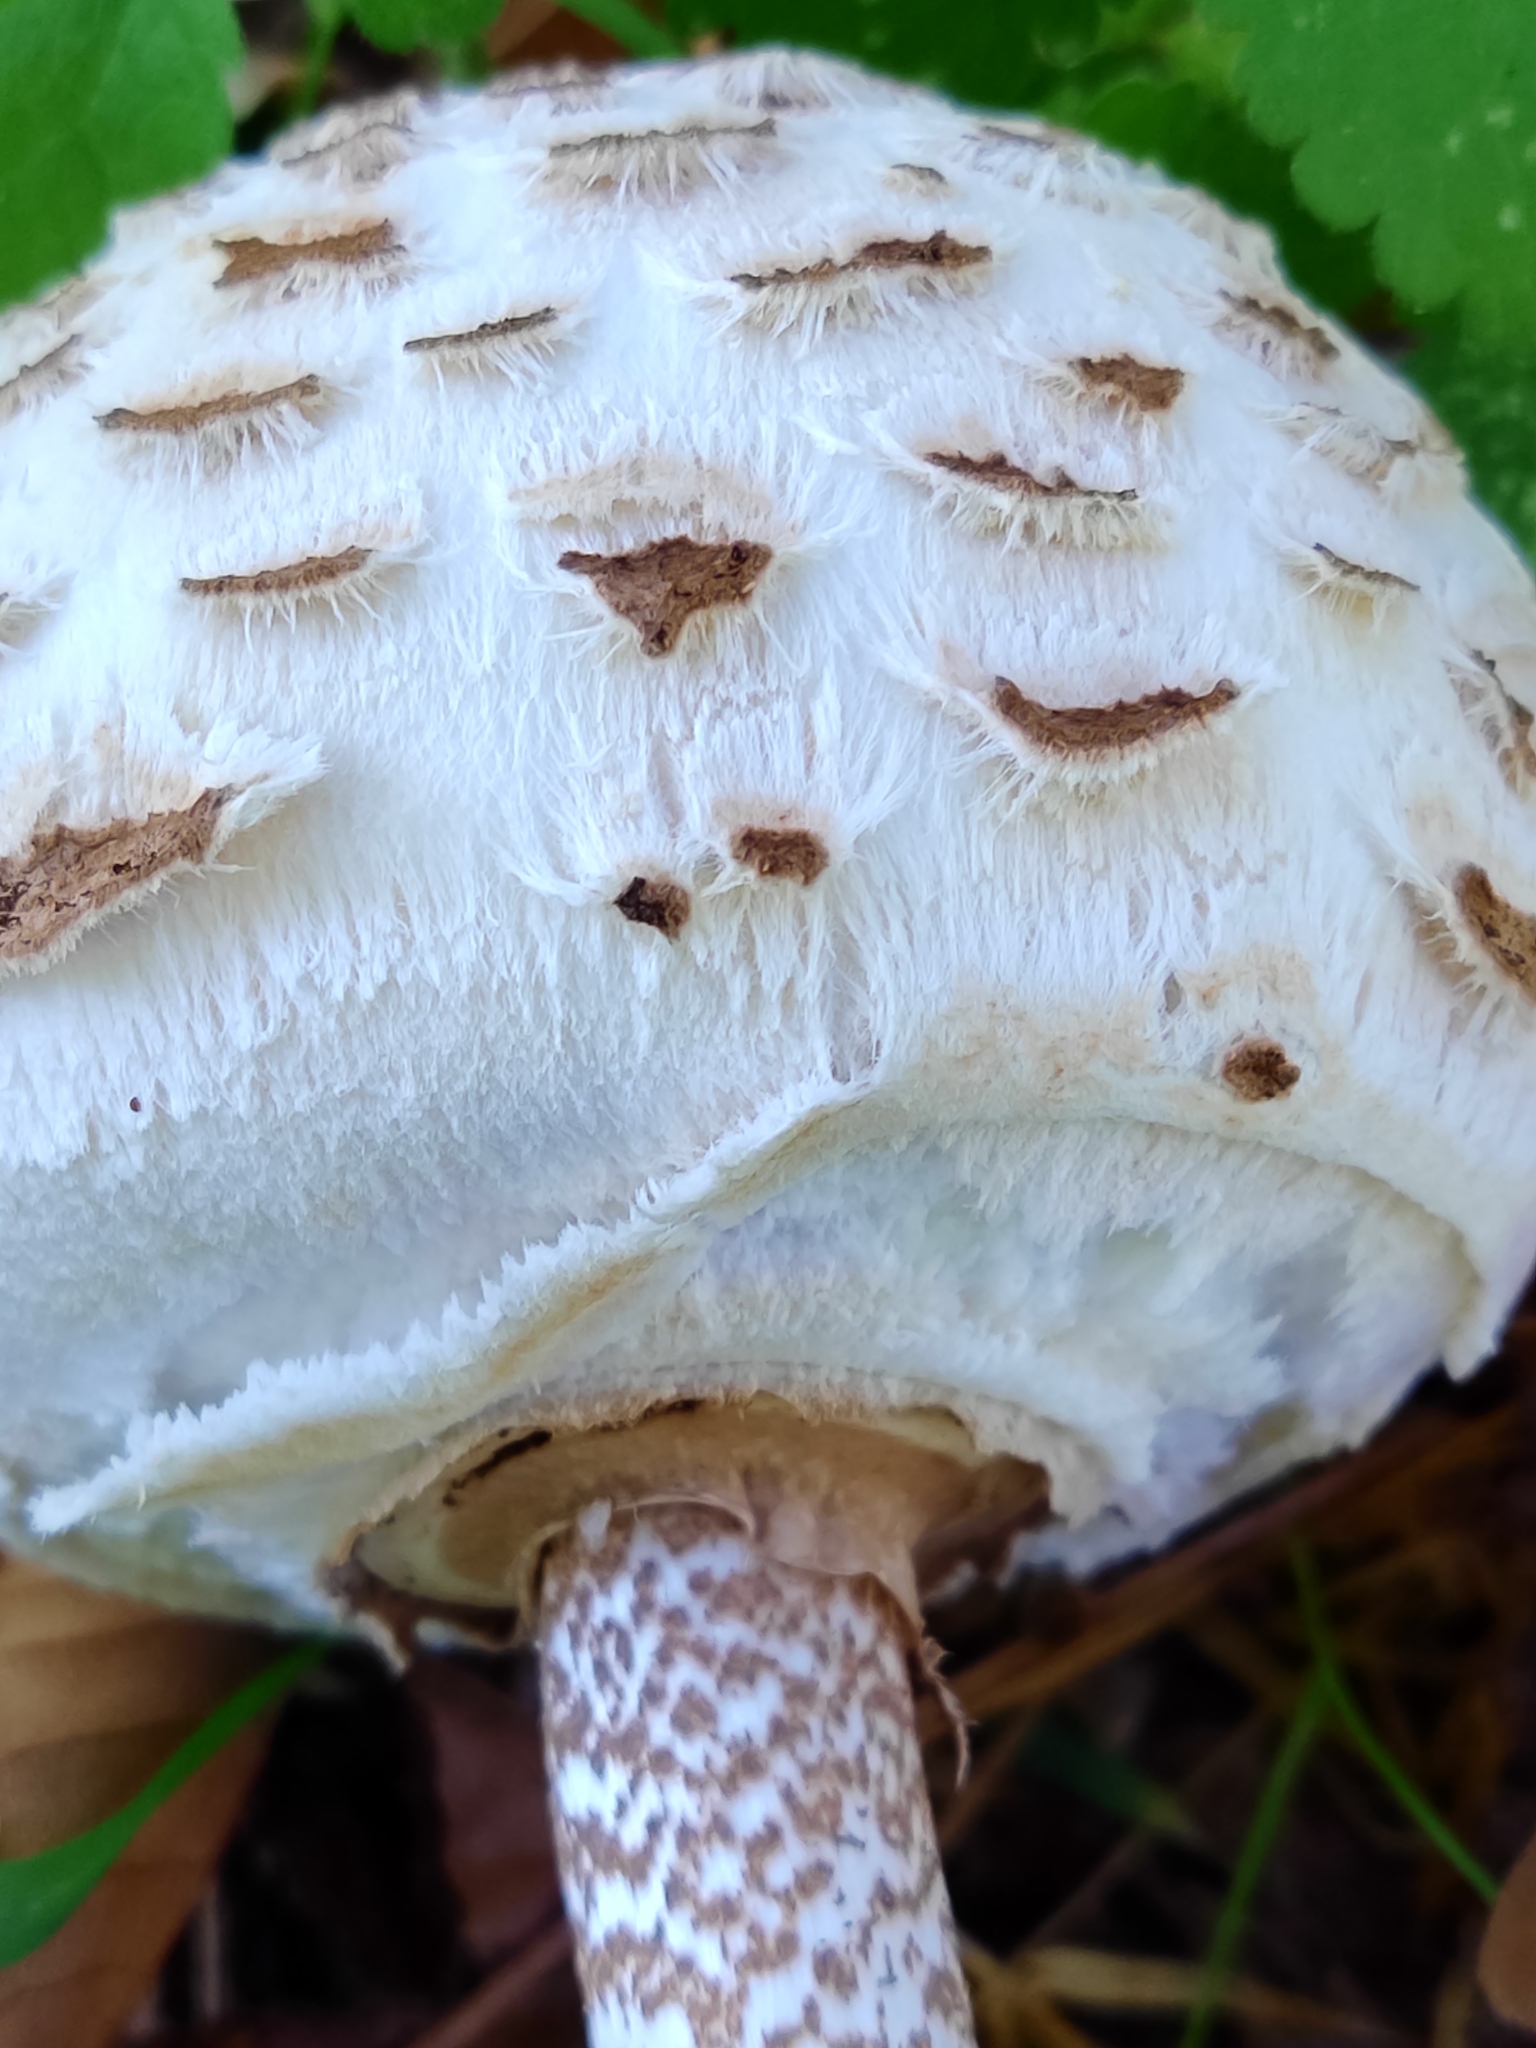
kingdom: Fungi
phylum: Basidiomycota
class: Agaricomycetes
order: Agaricales
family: Agaricaceae
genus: Macrolepiota
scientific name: Macrolepiota procera
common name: Parasol
